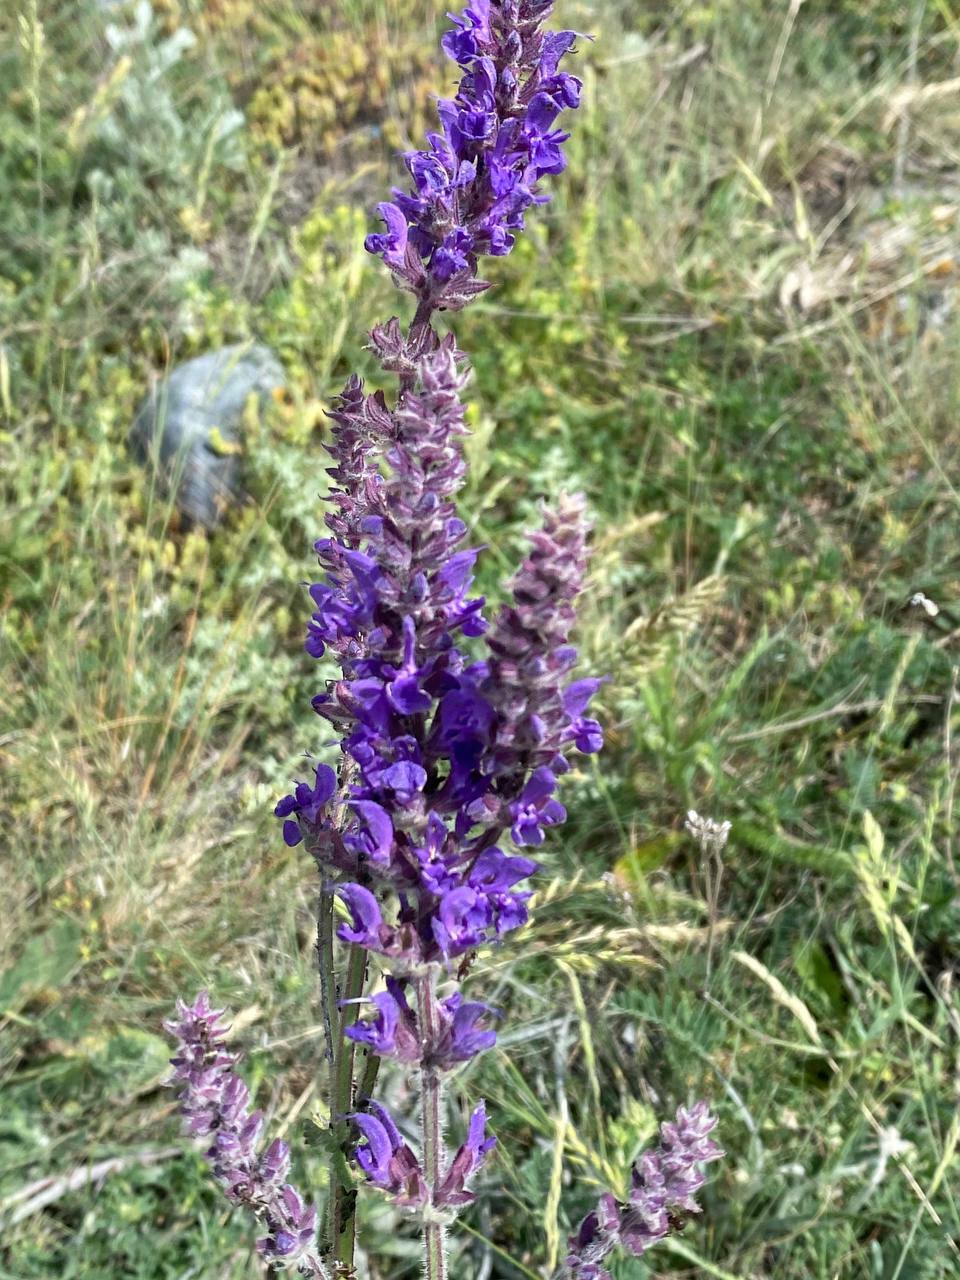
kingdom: Plantae
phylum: Tracheophyta
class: Magnoliopsida
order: Lamiales
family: Lamiaceae
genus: Salvia
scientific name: Salvia nemorosa
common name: Balkan clary
